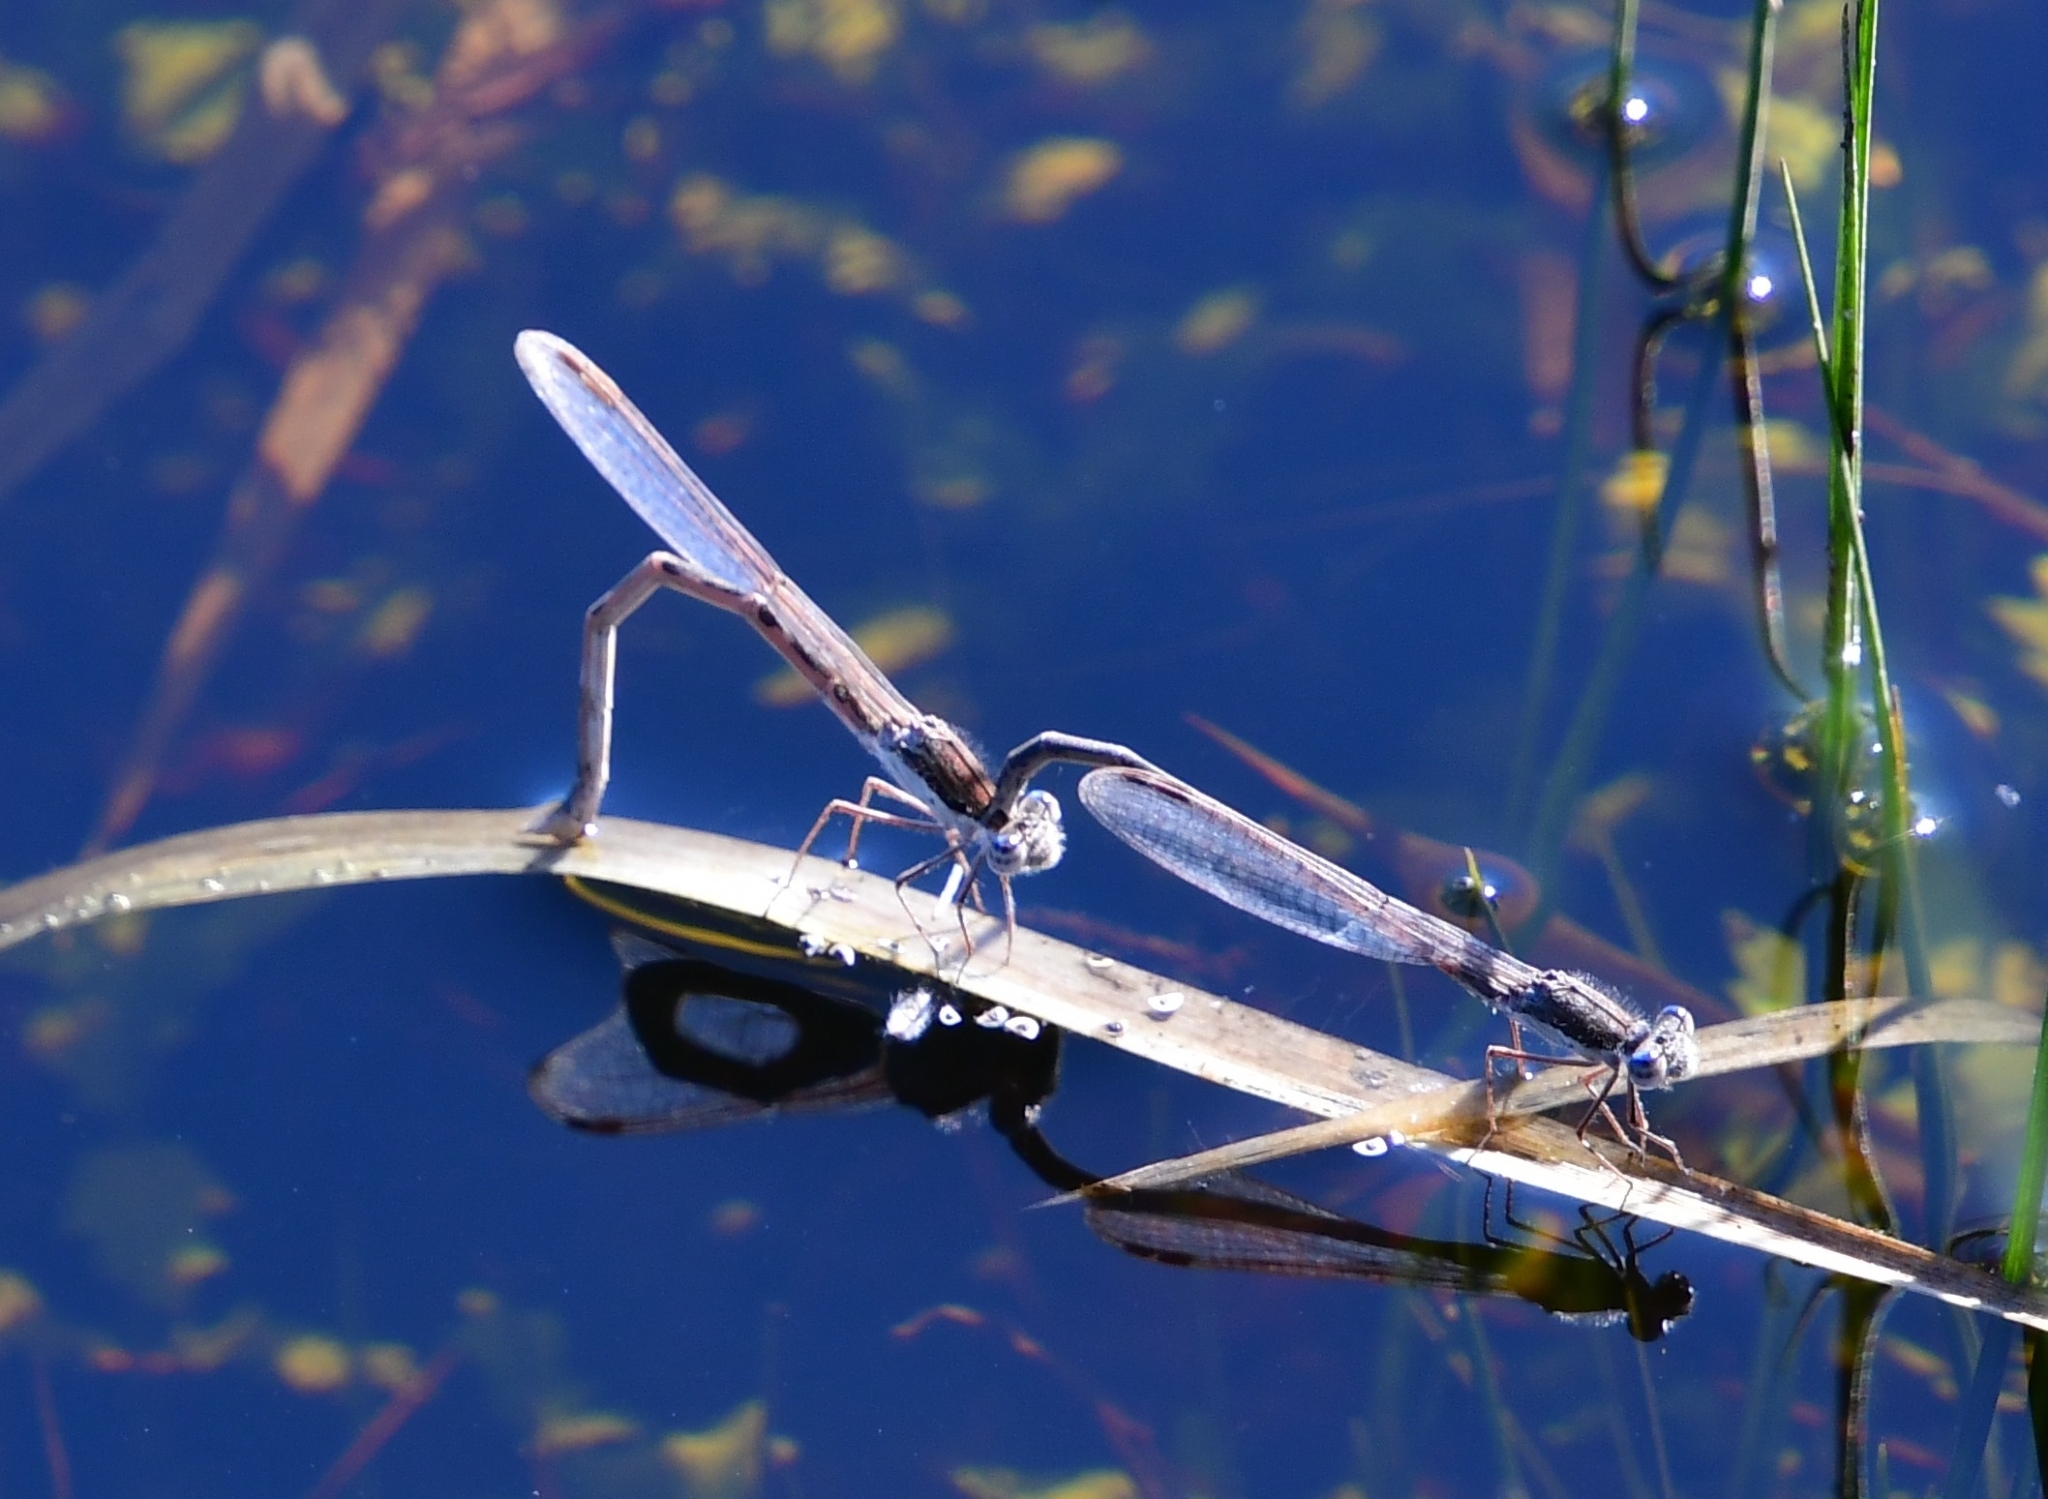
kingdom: Animalia
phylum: Arthropoda
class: Insecta
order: Odonata
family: Lestidae
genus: Sympecma
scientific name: Sympecma fusca
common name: Common winter damsel
